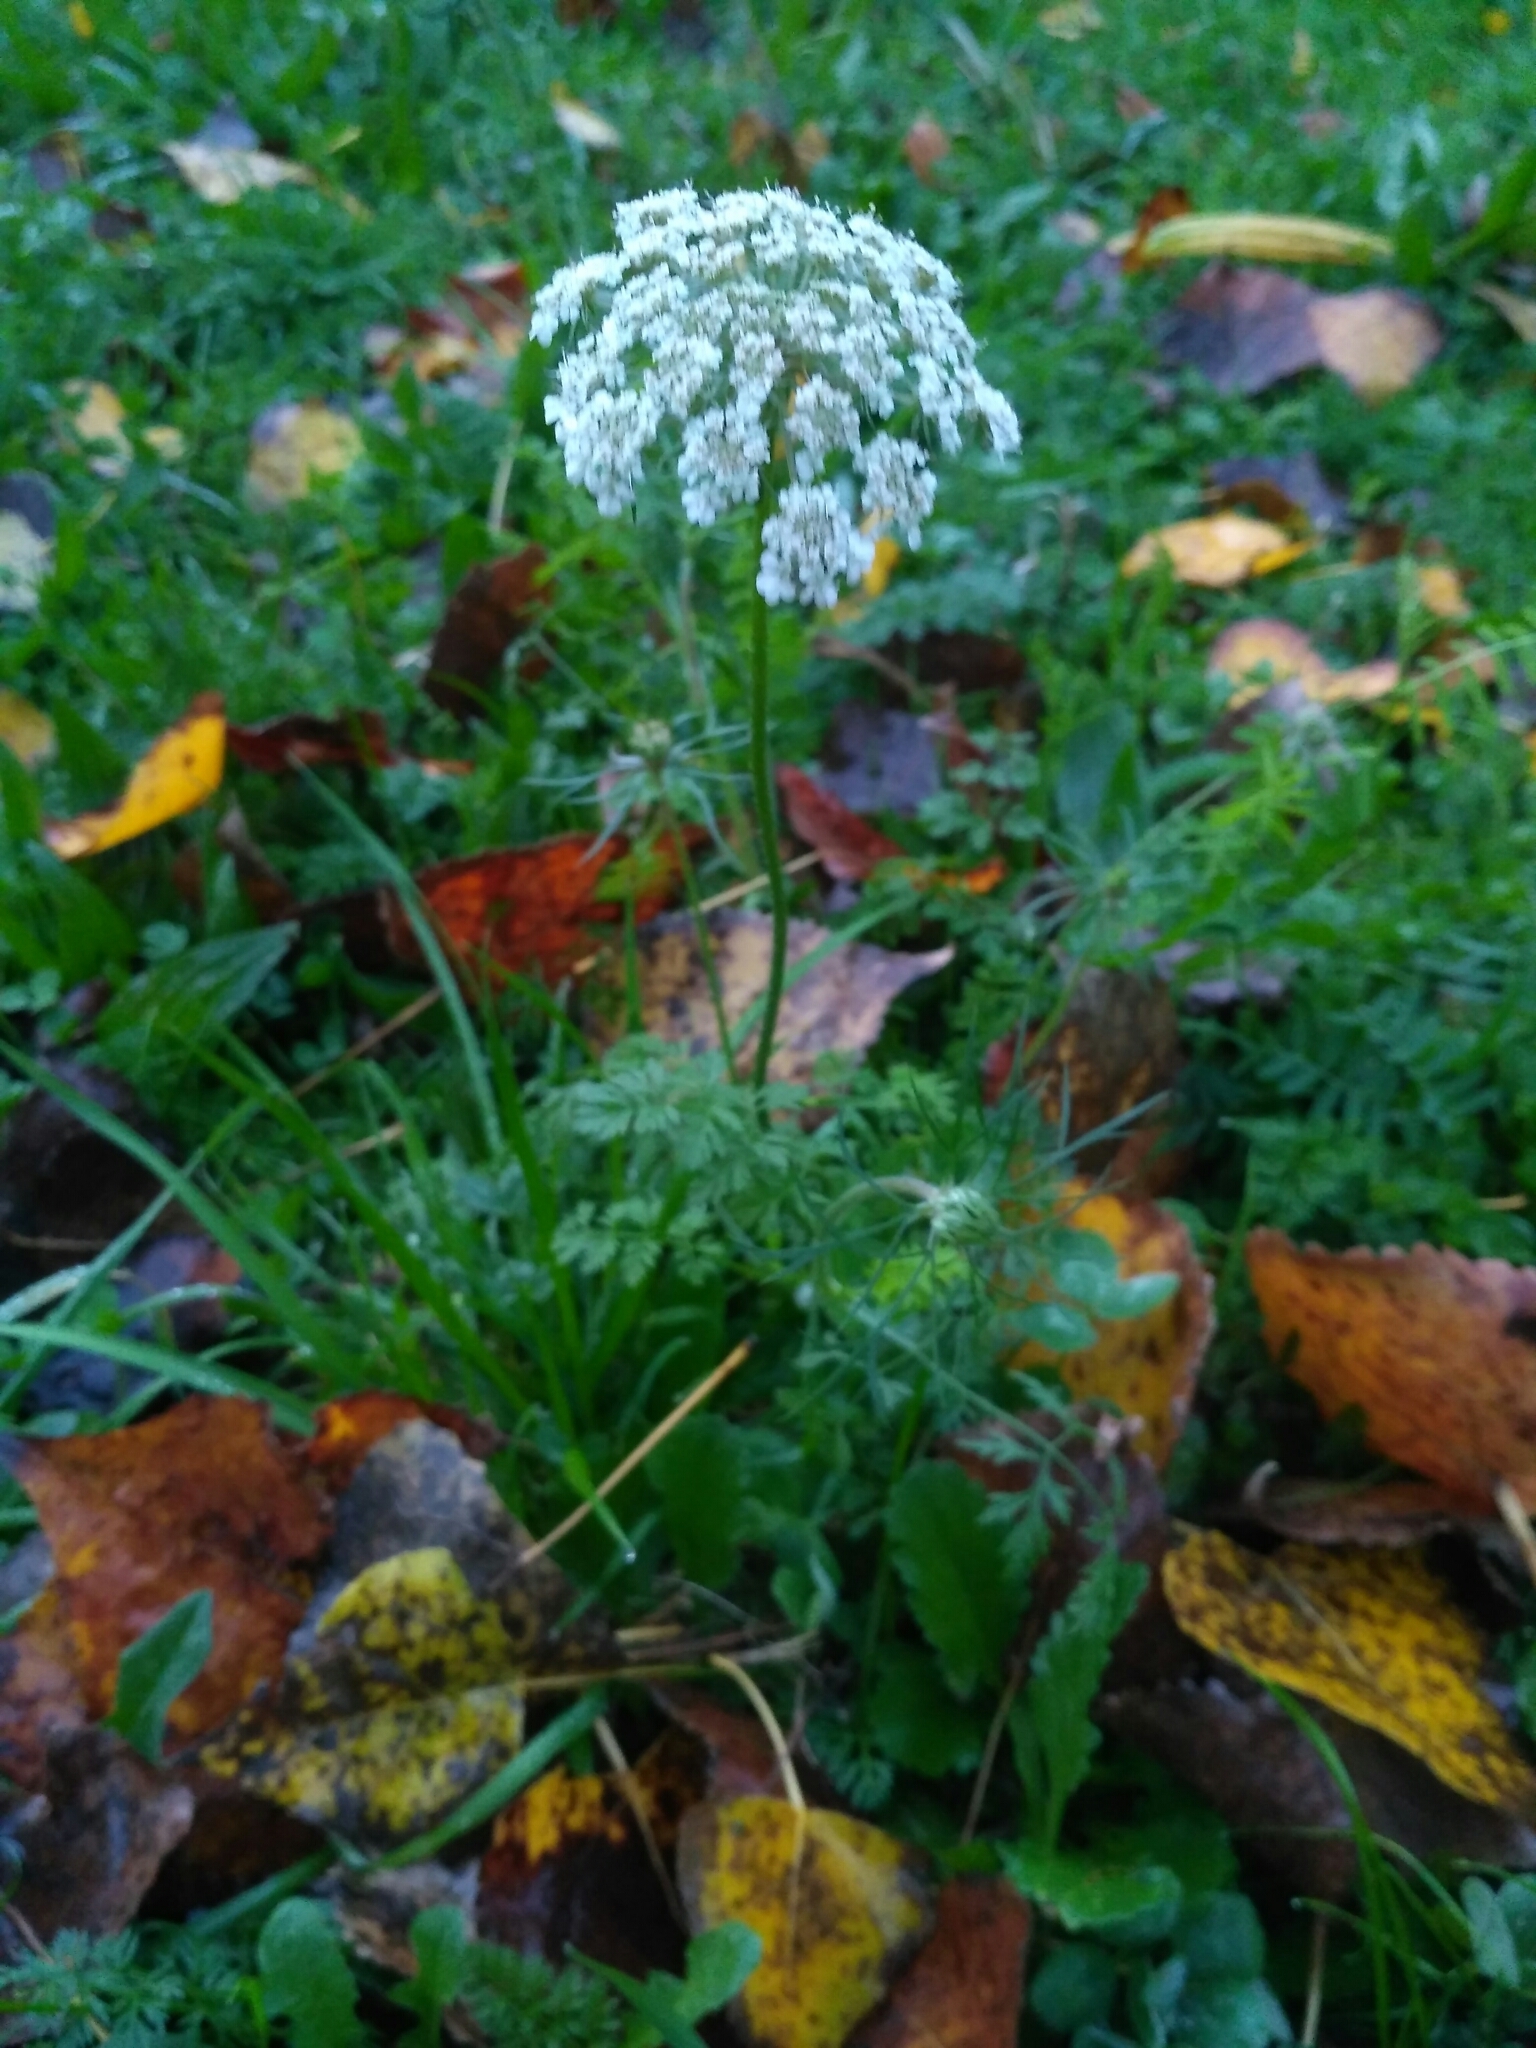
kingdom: Plantae
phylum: Tracheophyta
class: Magnoliopsida
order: Apiales
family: Apiaceae
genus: Daucus
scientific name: Daucus carota
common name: Wild carrot
